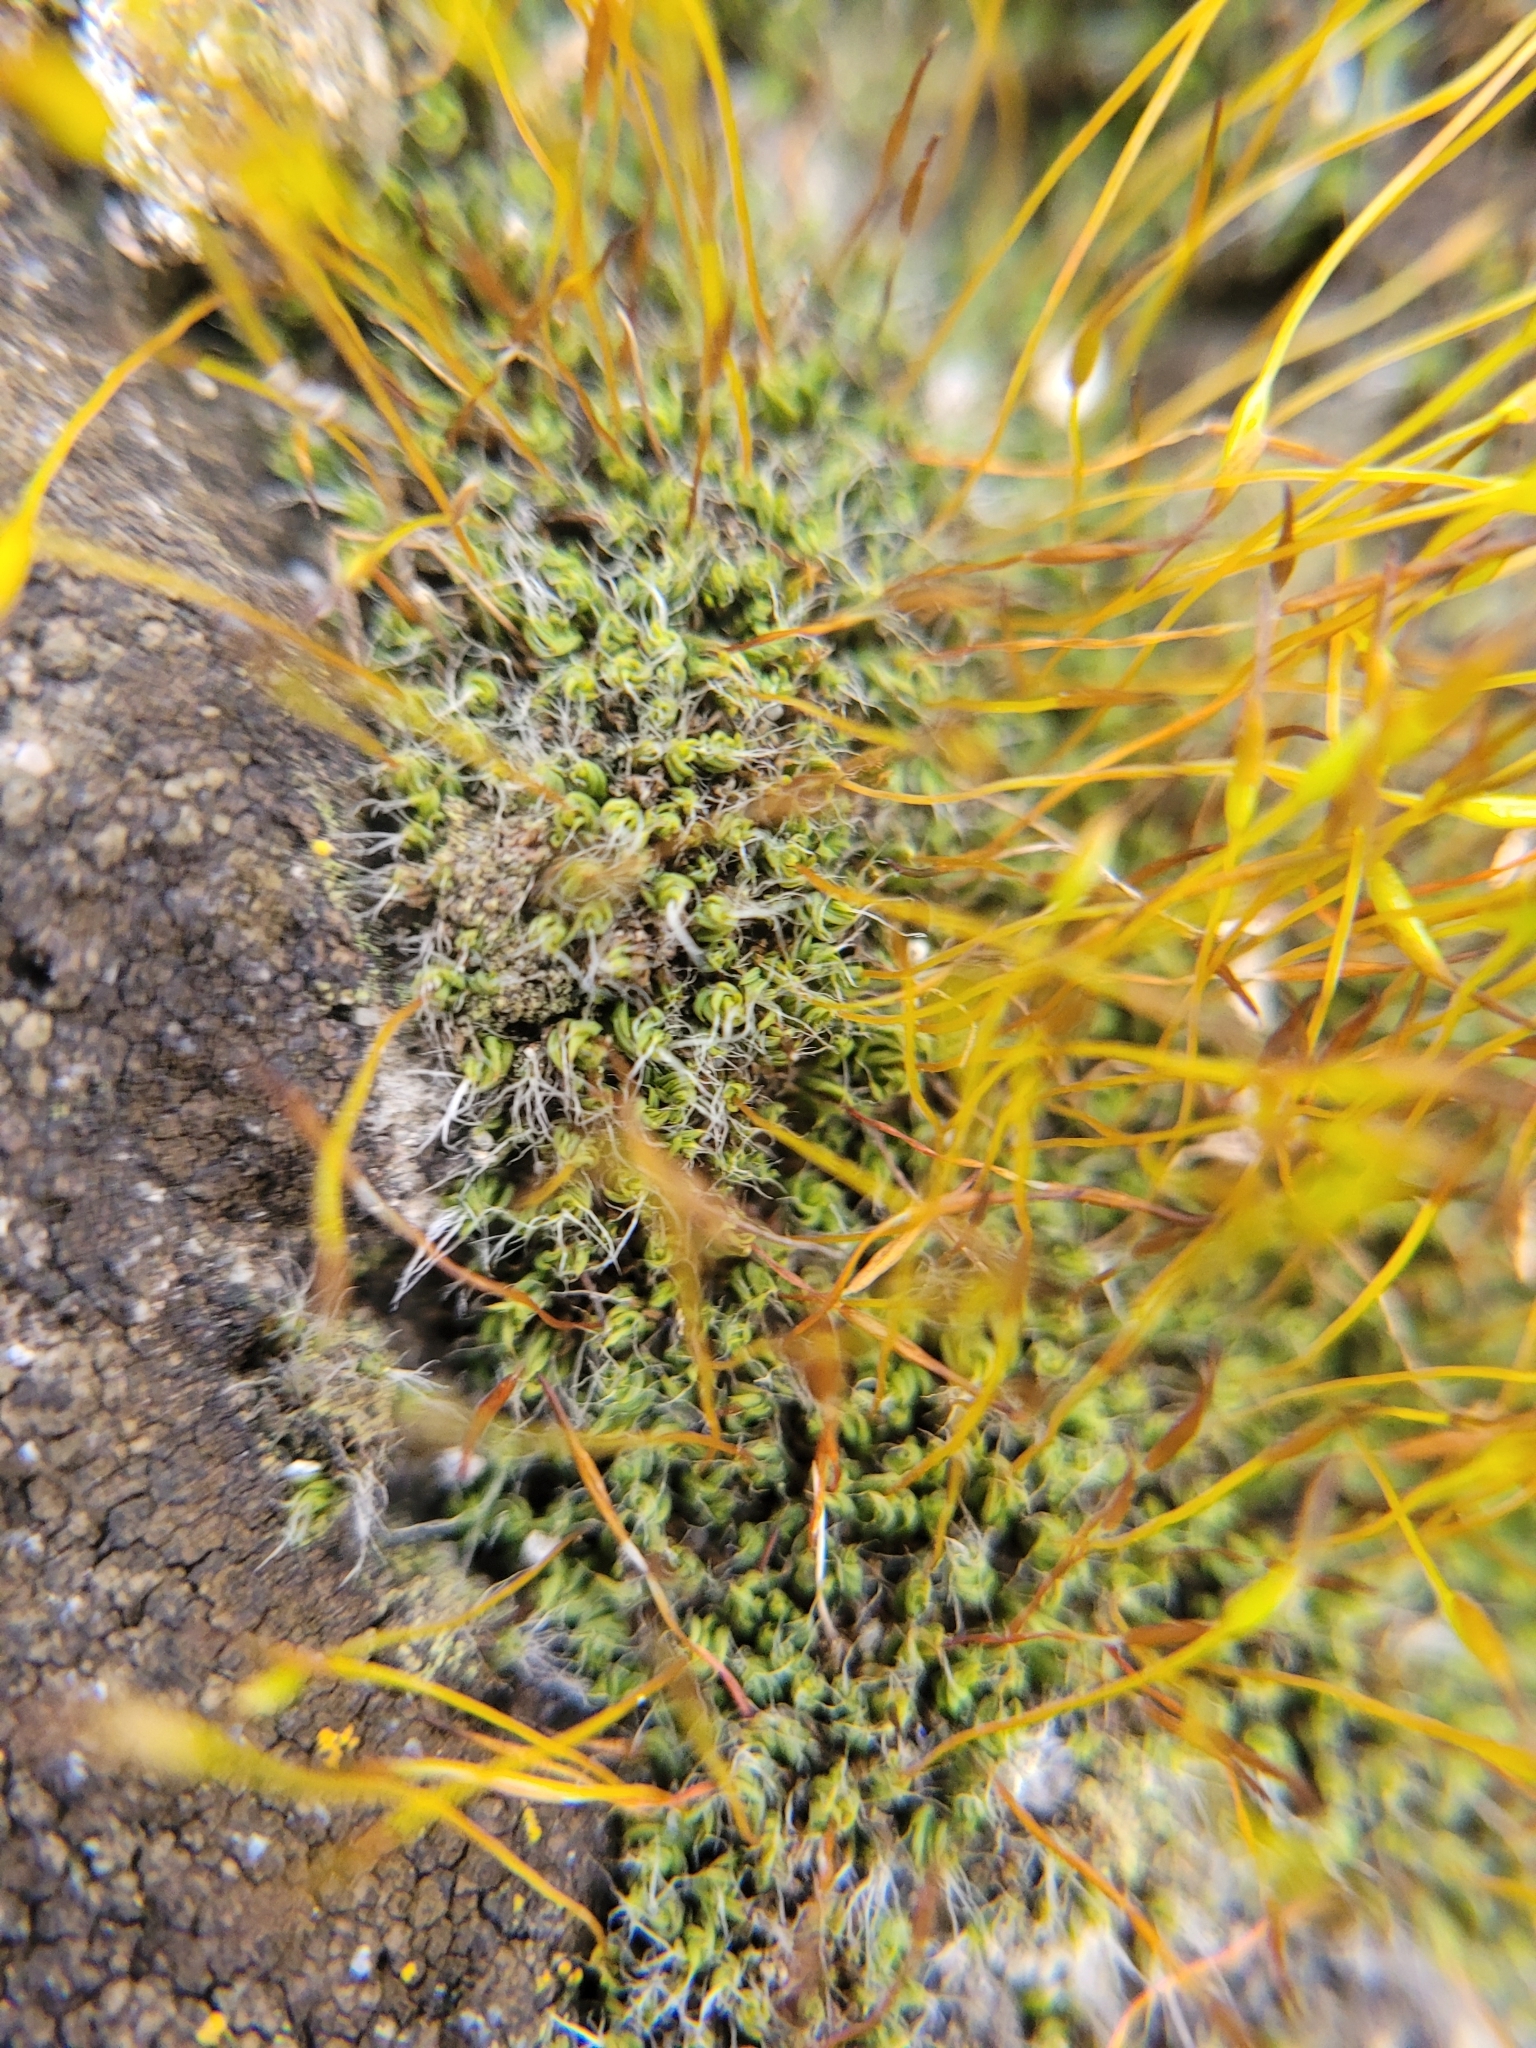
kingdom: Plantae
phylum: Bryophyta
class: Bryopsida
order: Pottiales
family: Pottiaceae
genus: Tortula
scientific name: Tortula muralis
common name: Wall screw-moss
